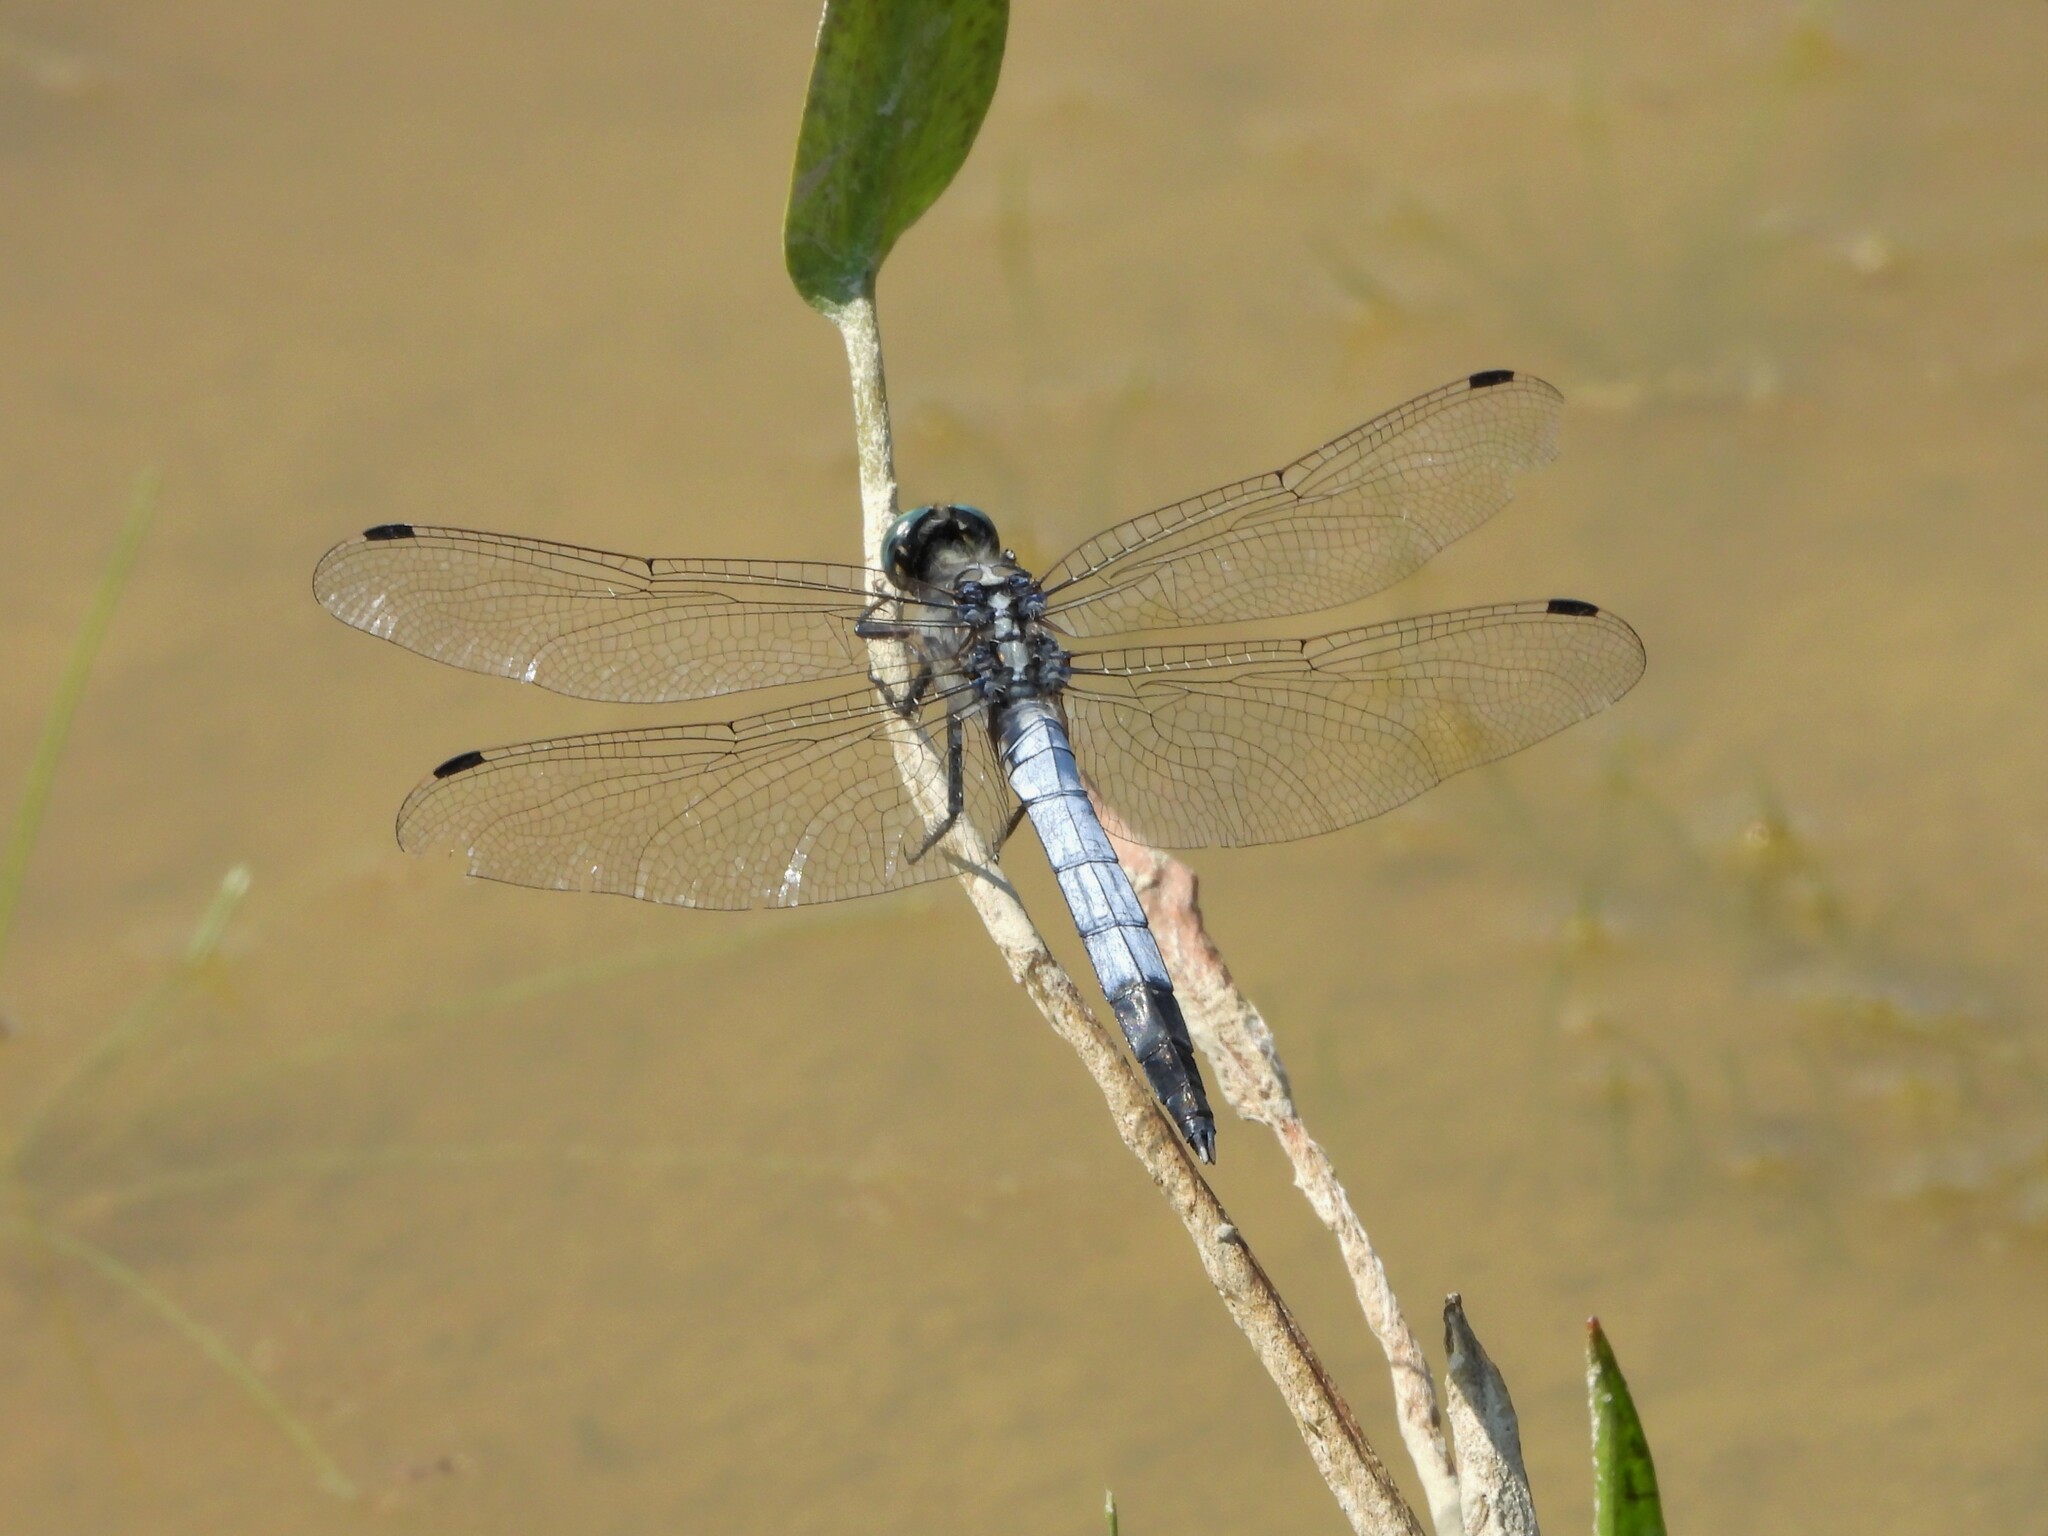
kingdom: Animalia
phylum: Arthropoda
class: Insecta
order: Odonata
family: Libellulidae
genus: Orthetrum
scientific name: Orthetrum albistylum
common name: White-tailed skimmer
